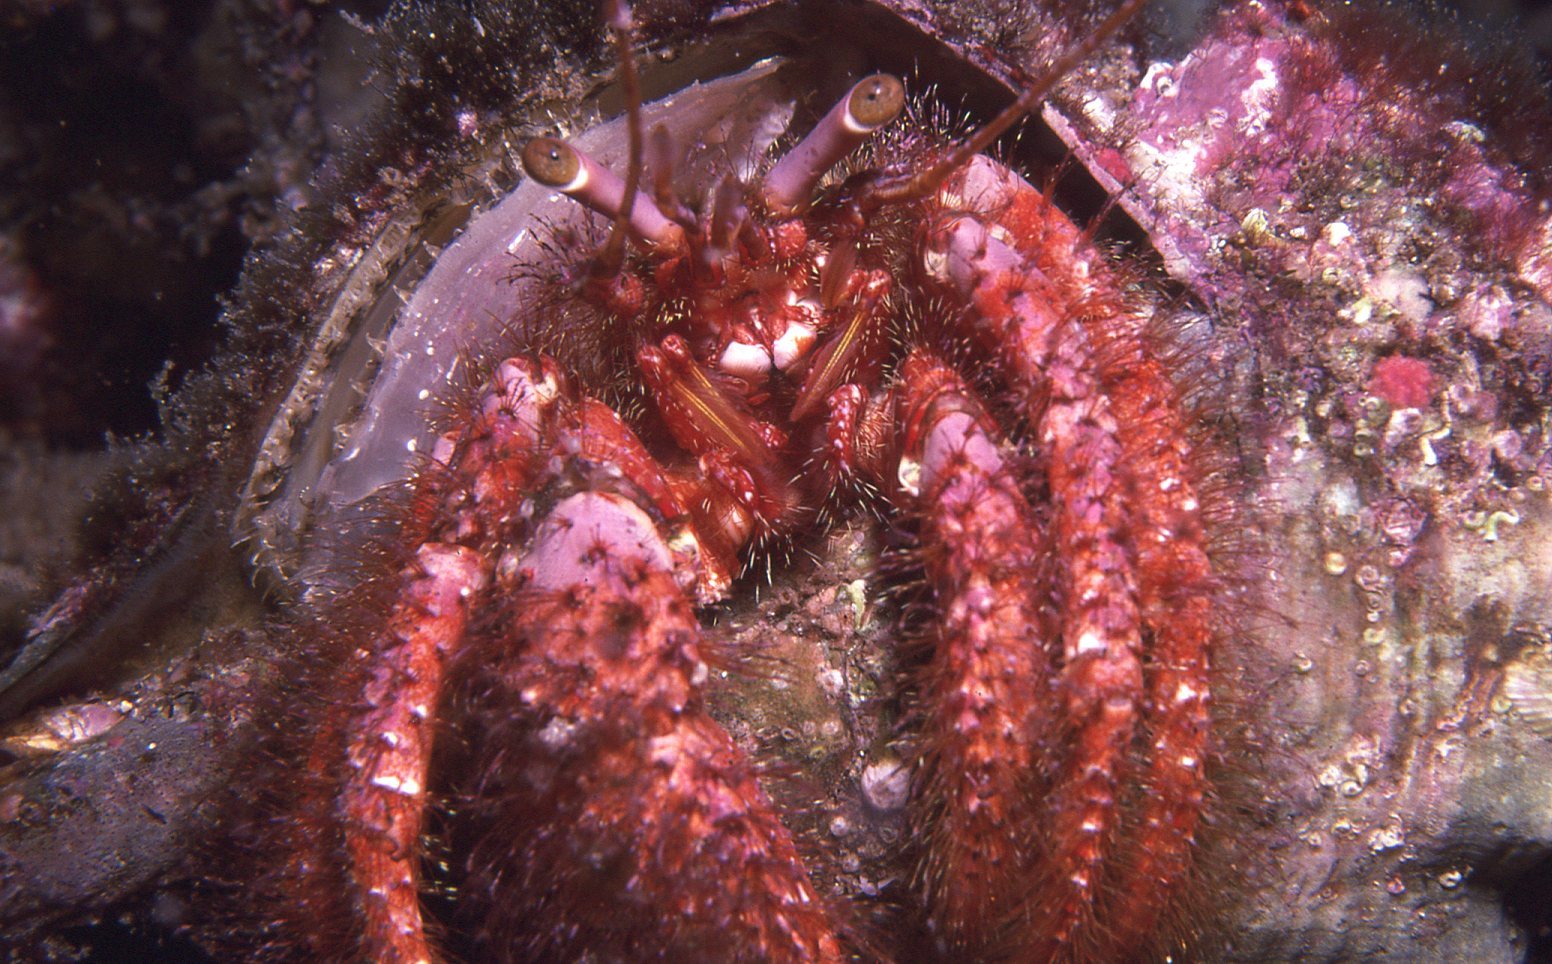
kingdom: Animalia
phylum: Arthropoda
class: Malacostraca
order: Decapoda
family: Diogenidae
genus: Dardanus
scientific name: Dardanus crassimanus
